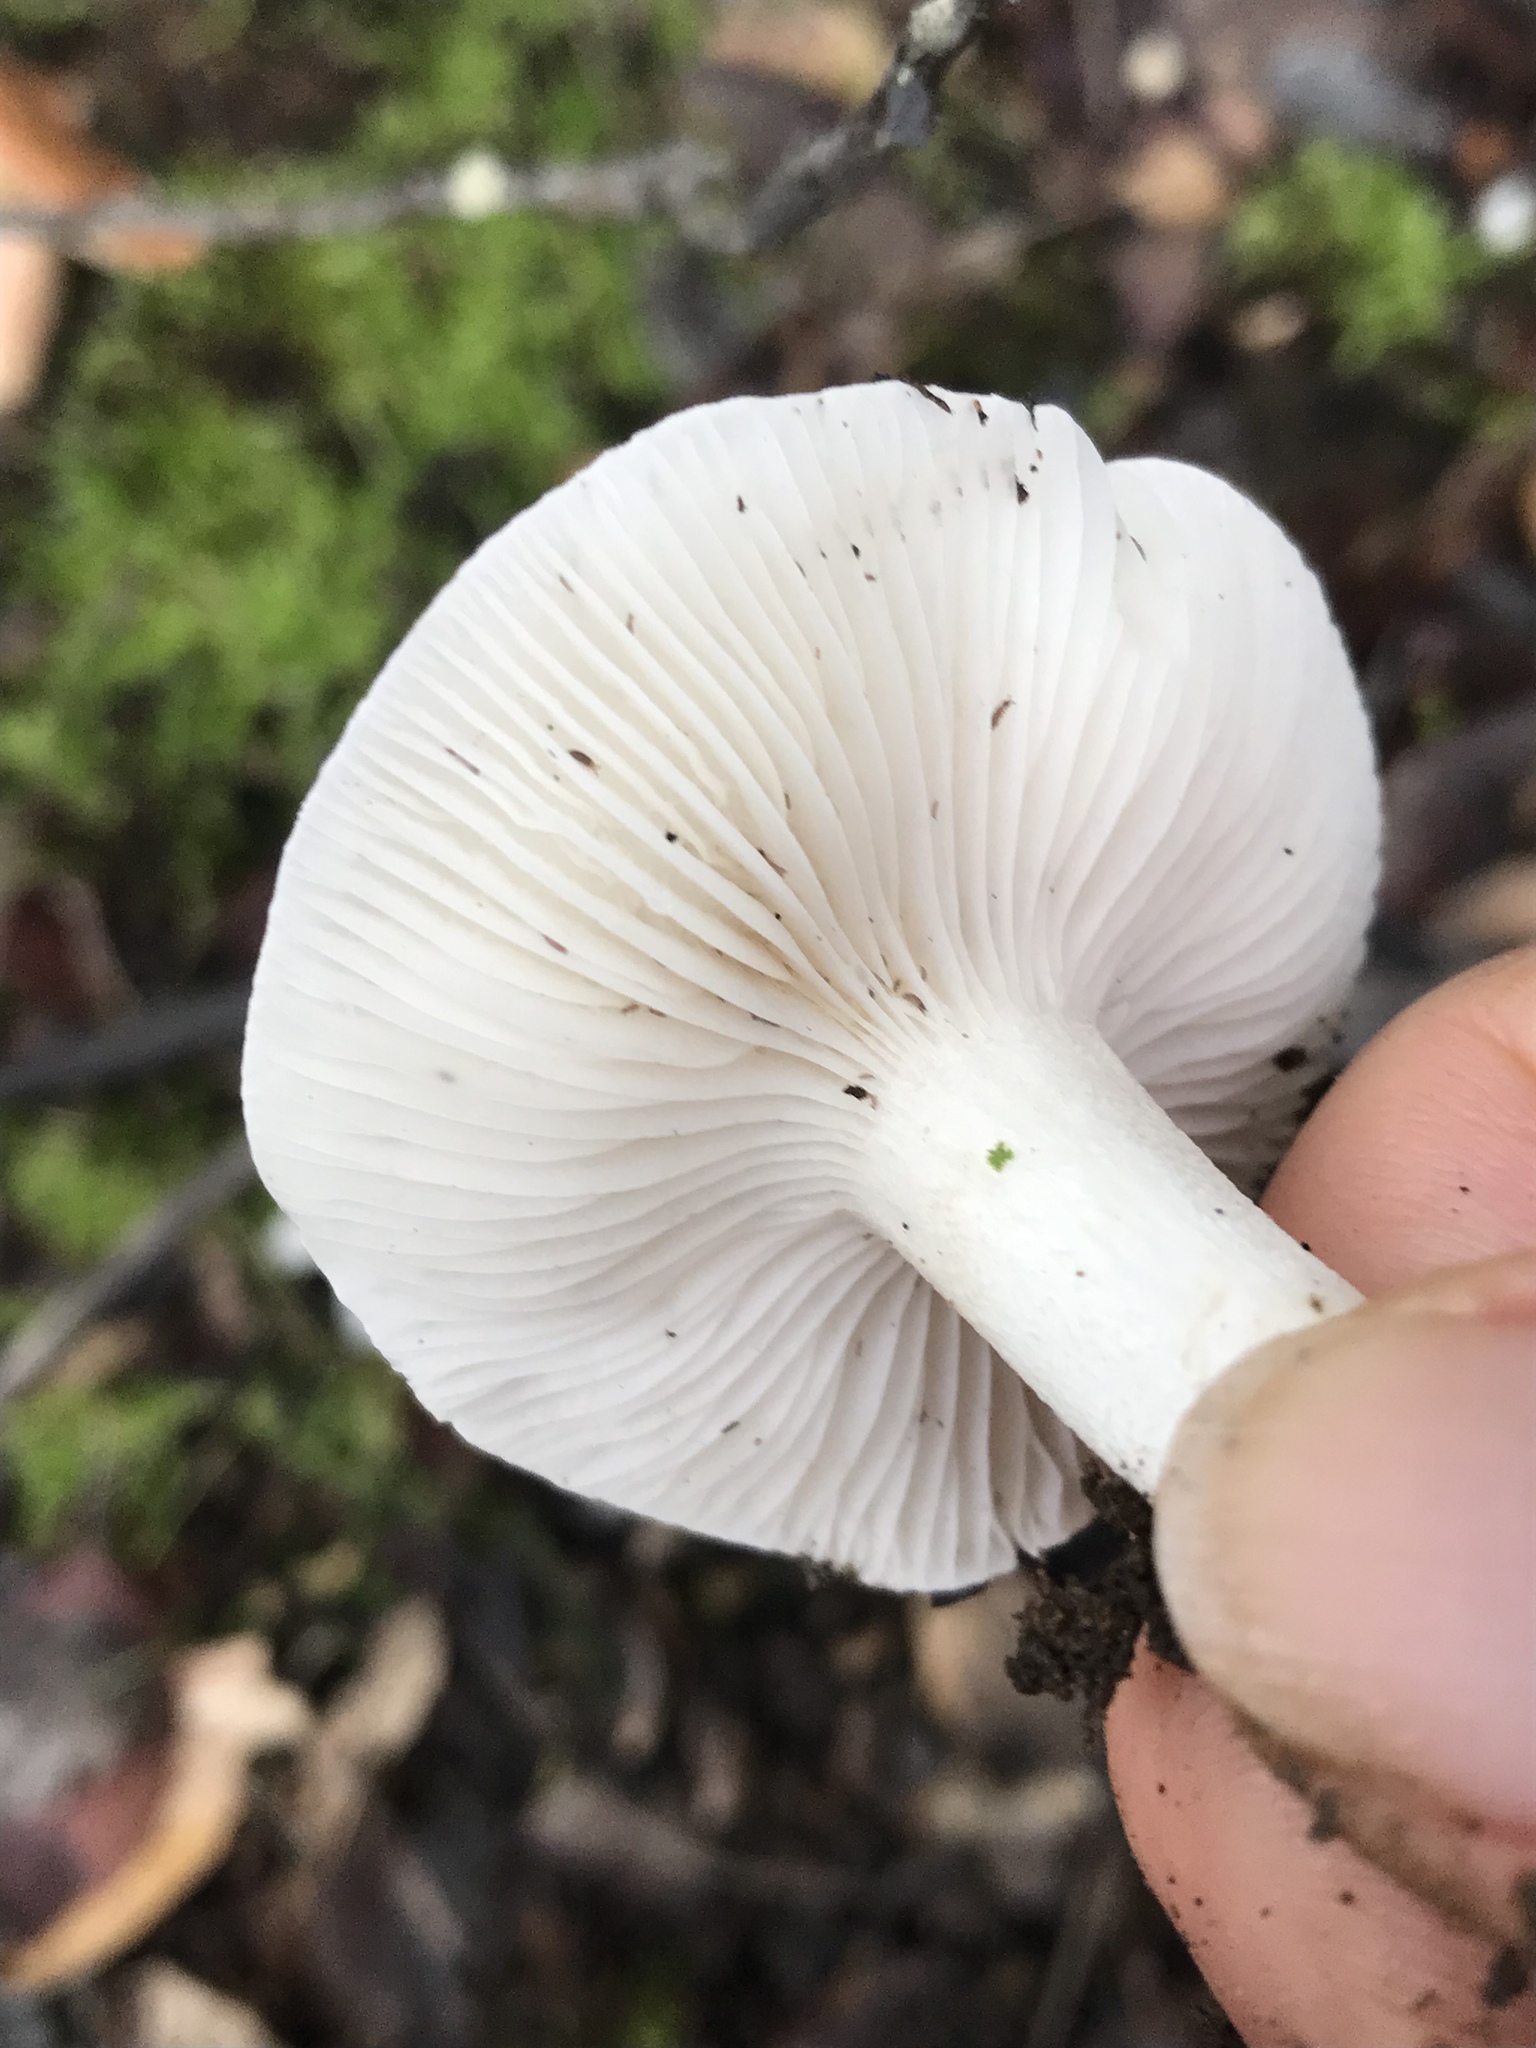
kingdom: Fungi
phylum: Basidiomycota
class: Agaricomycetes
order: Agaricales
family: Hygrophoraceae
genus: Hygrophorus
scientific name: Hygrophorus roseobrunneus
